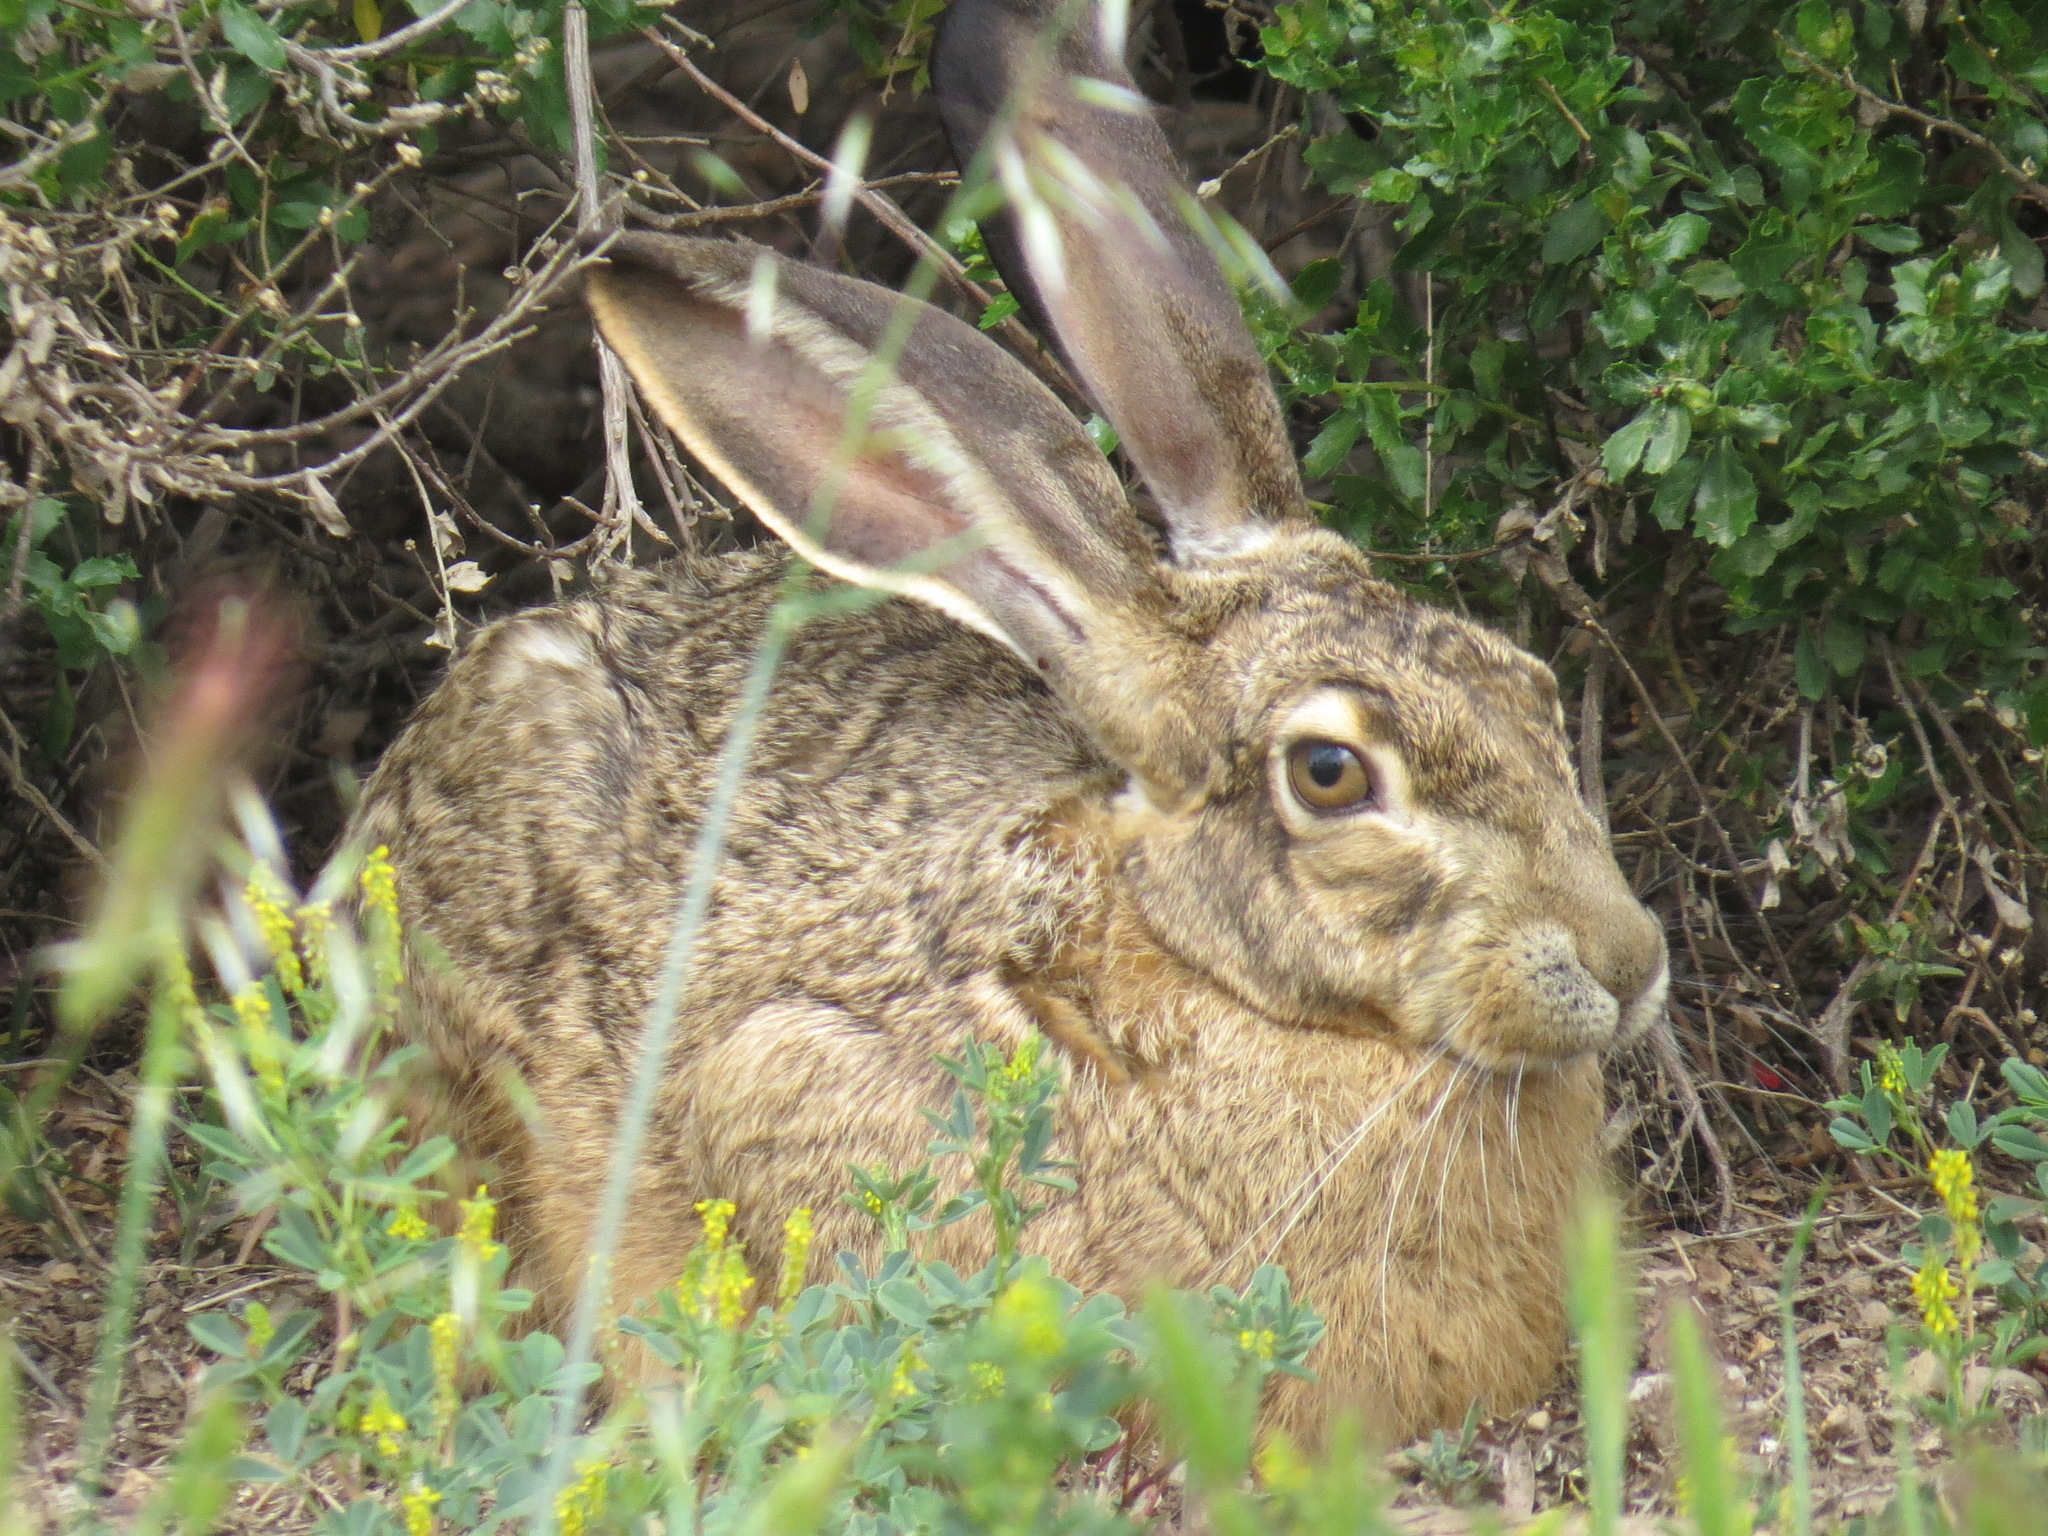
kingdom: Animalia
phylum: Chordata
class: Mammalia
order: Lagomorpha
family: Leporidae
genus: Lepus
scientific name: Lepus californicus
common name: Black-tailed jackrabbit
